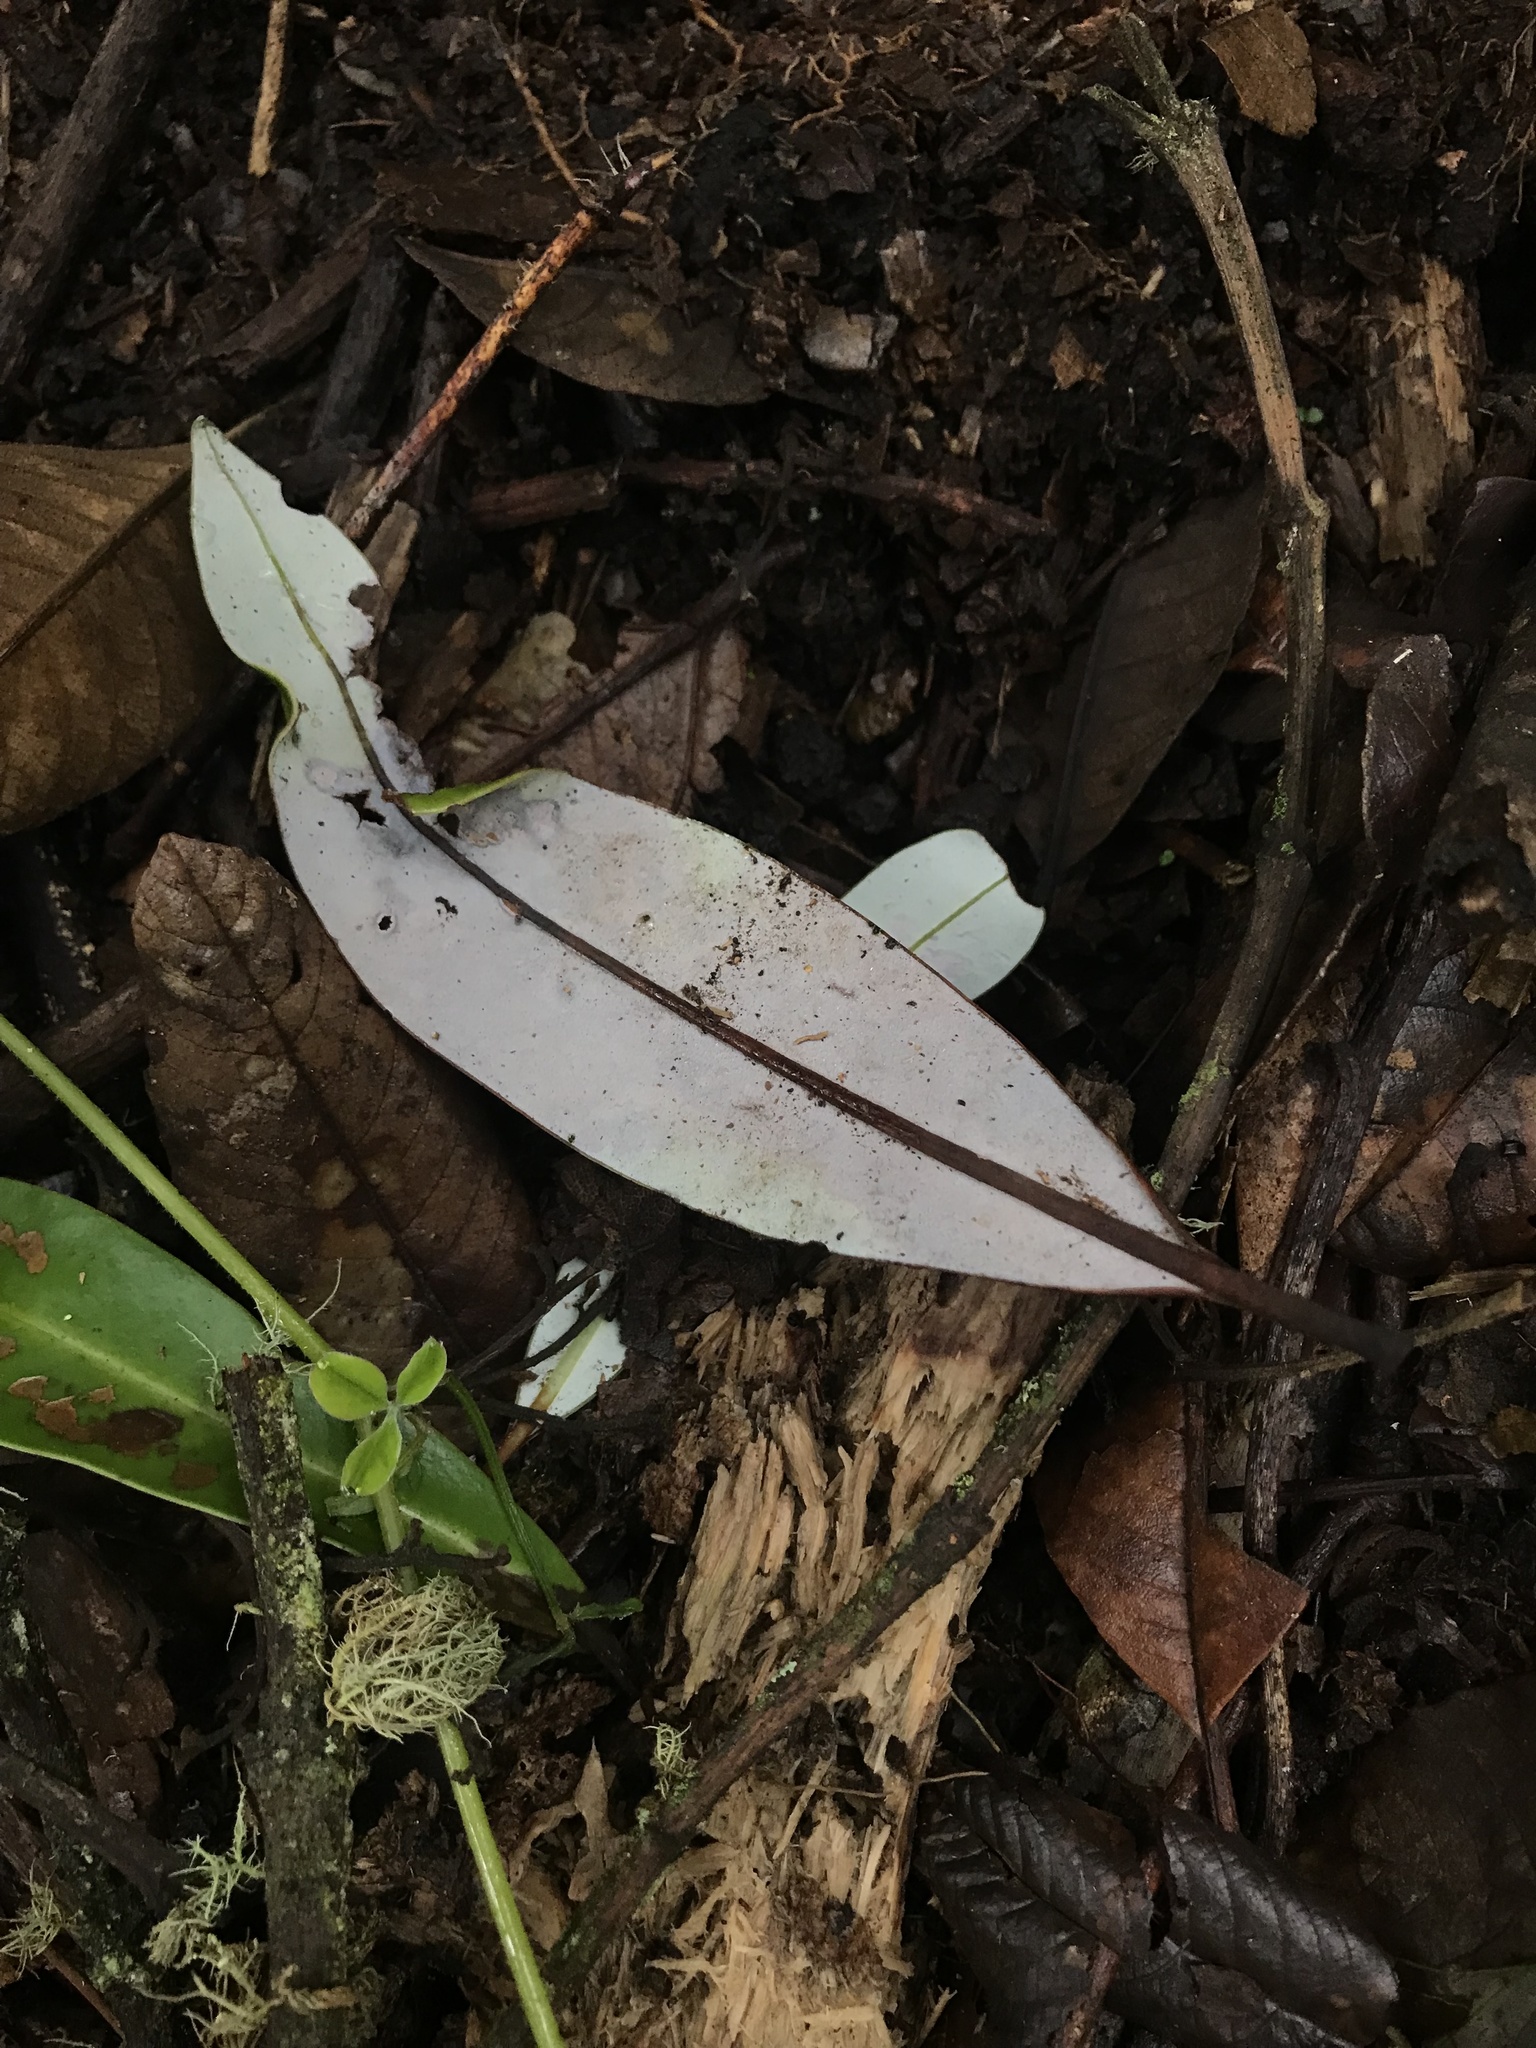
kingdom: Plantae
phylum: Tracheophyta
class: Magnoliopsida
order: Canellales
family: Winteraceae
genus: Drimys
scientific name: Drimys granadensis
